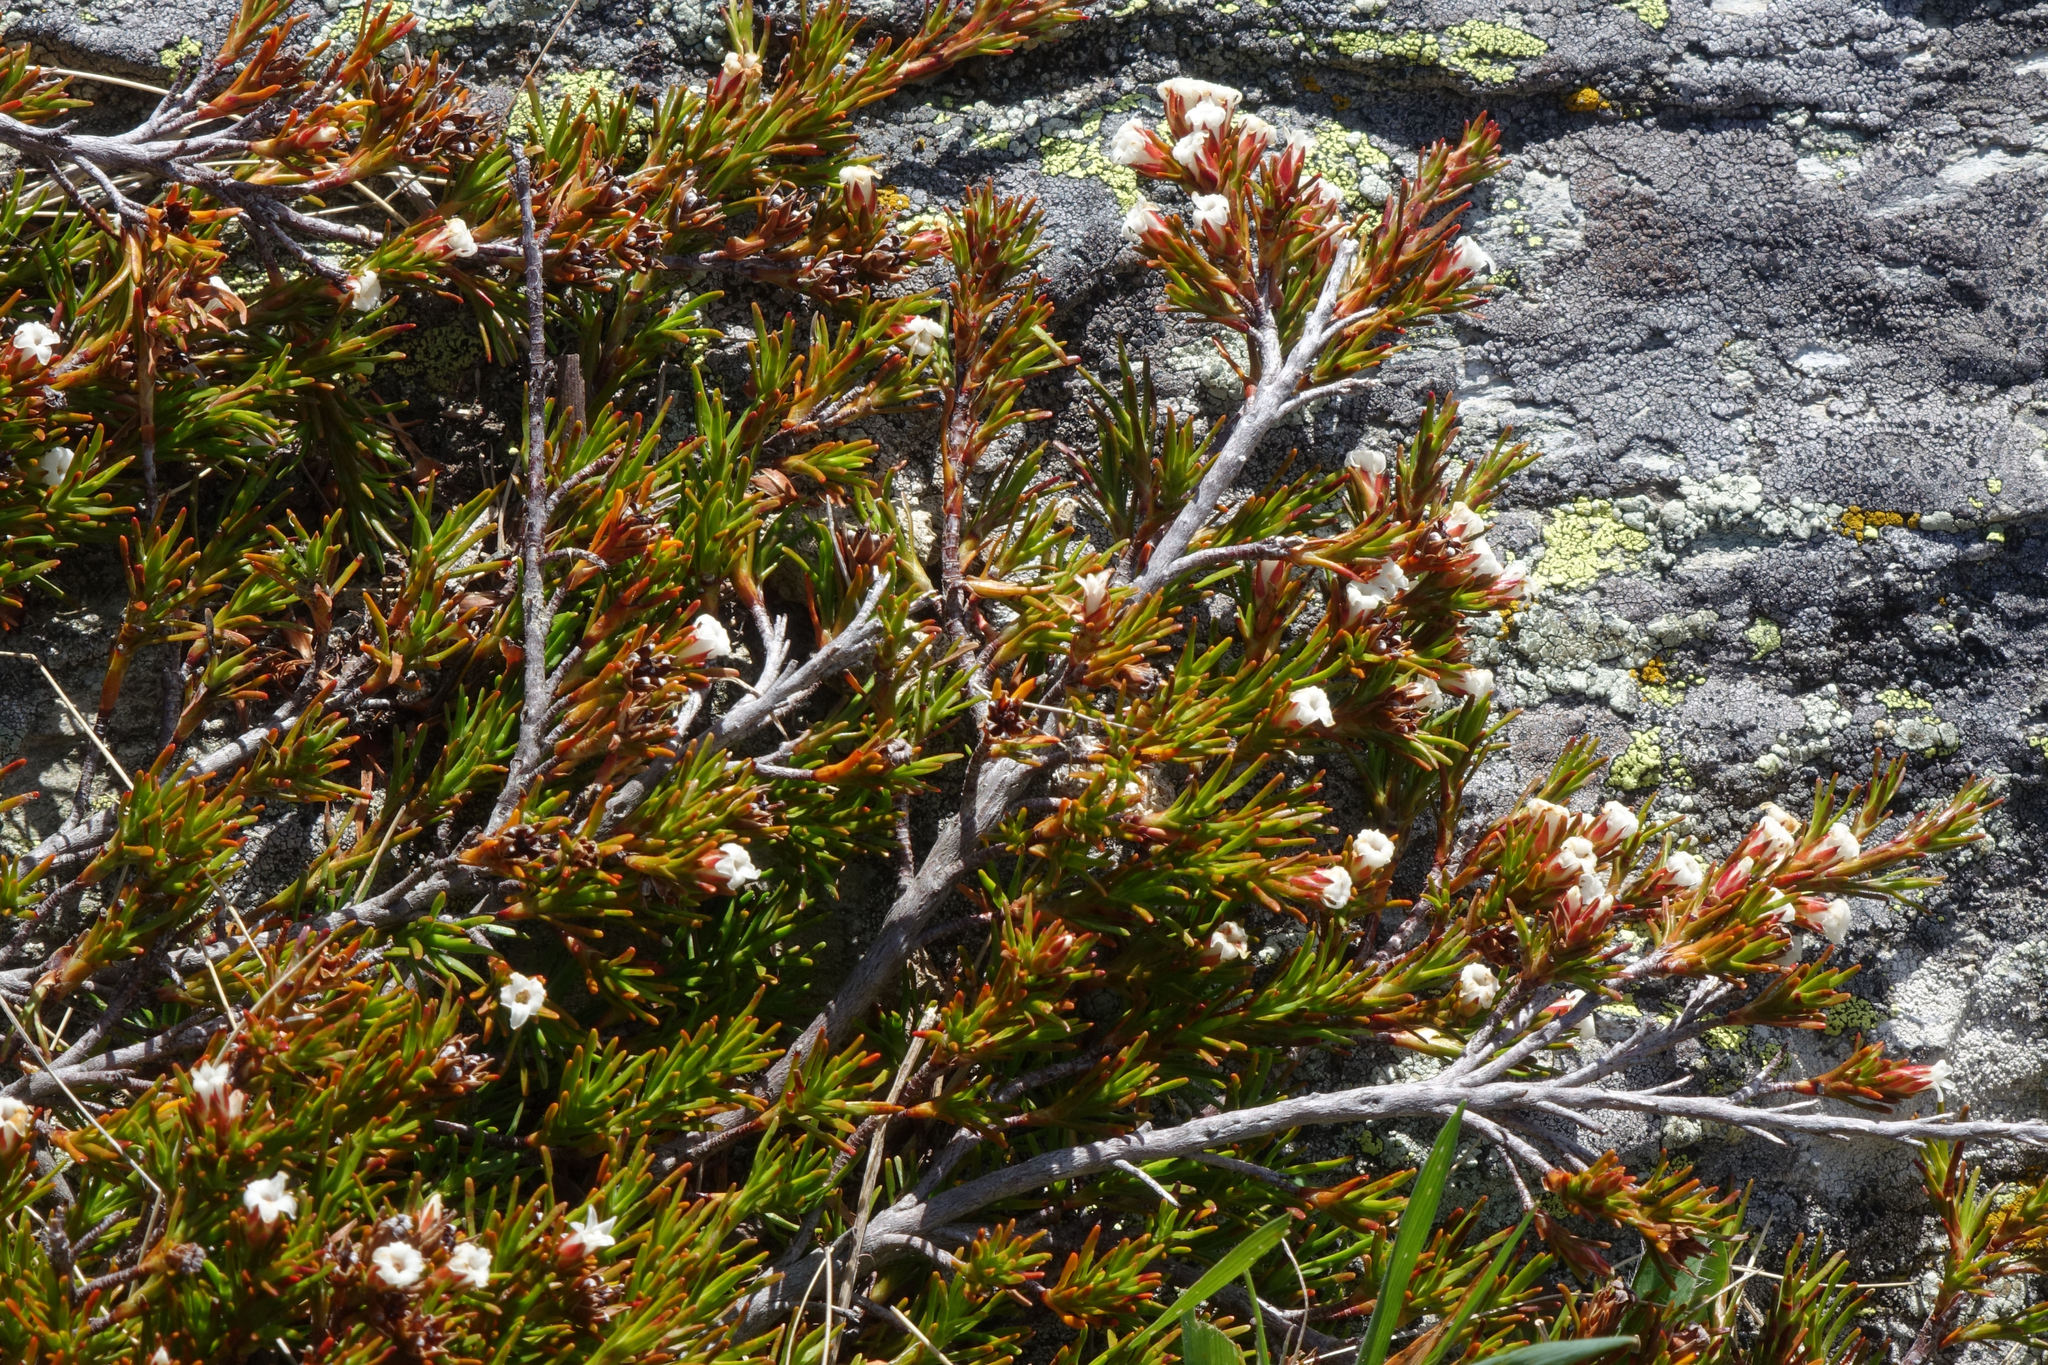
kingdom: Plantae
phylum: Tracheophyta
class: Magnoliopsida
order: Ericales
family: Ericaceae
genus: Dracophyllum
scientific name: Dracophyllum pronum
